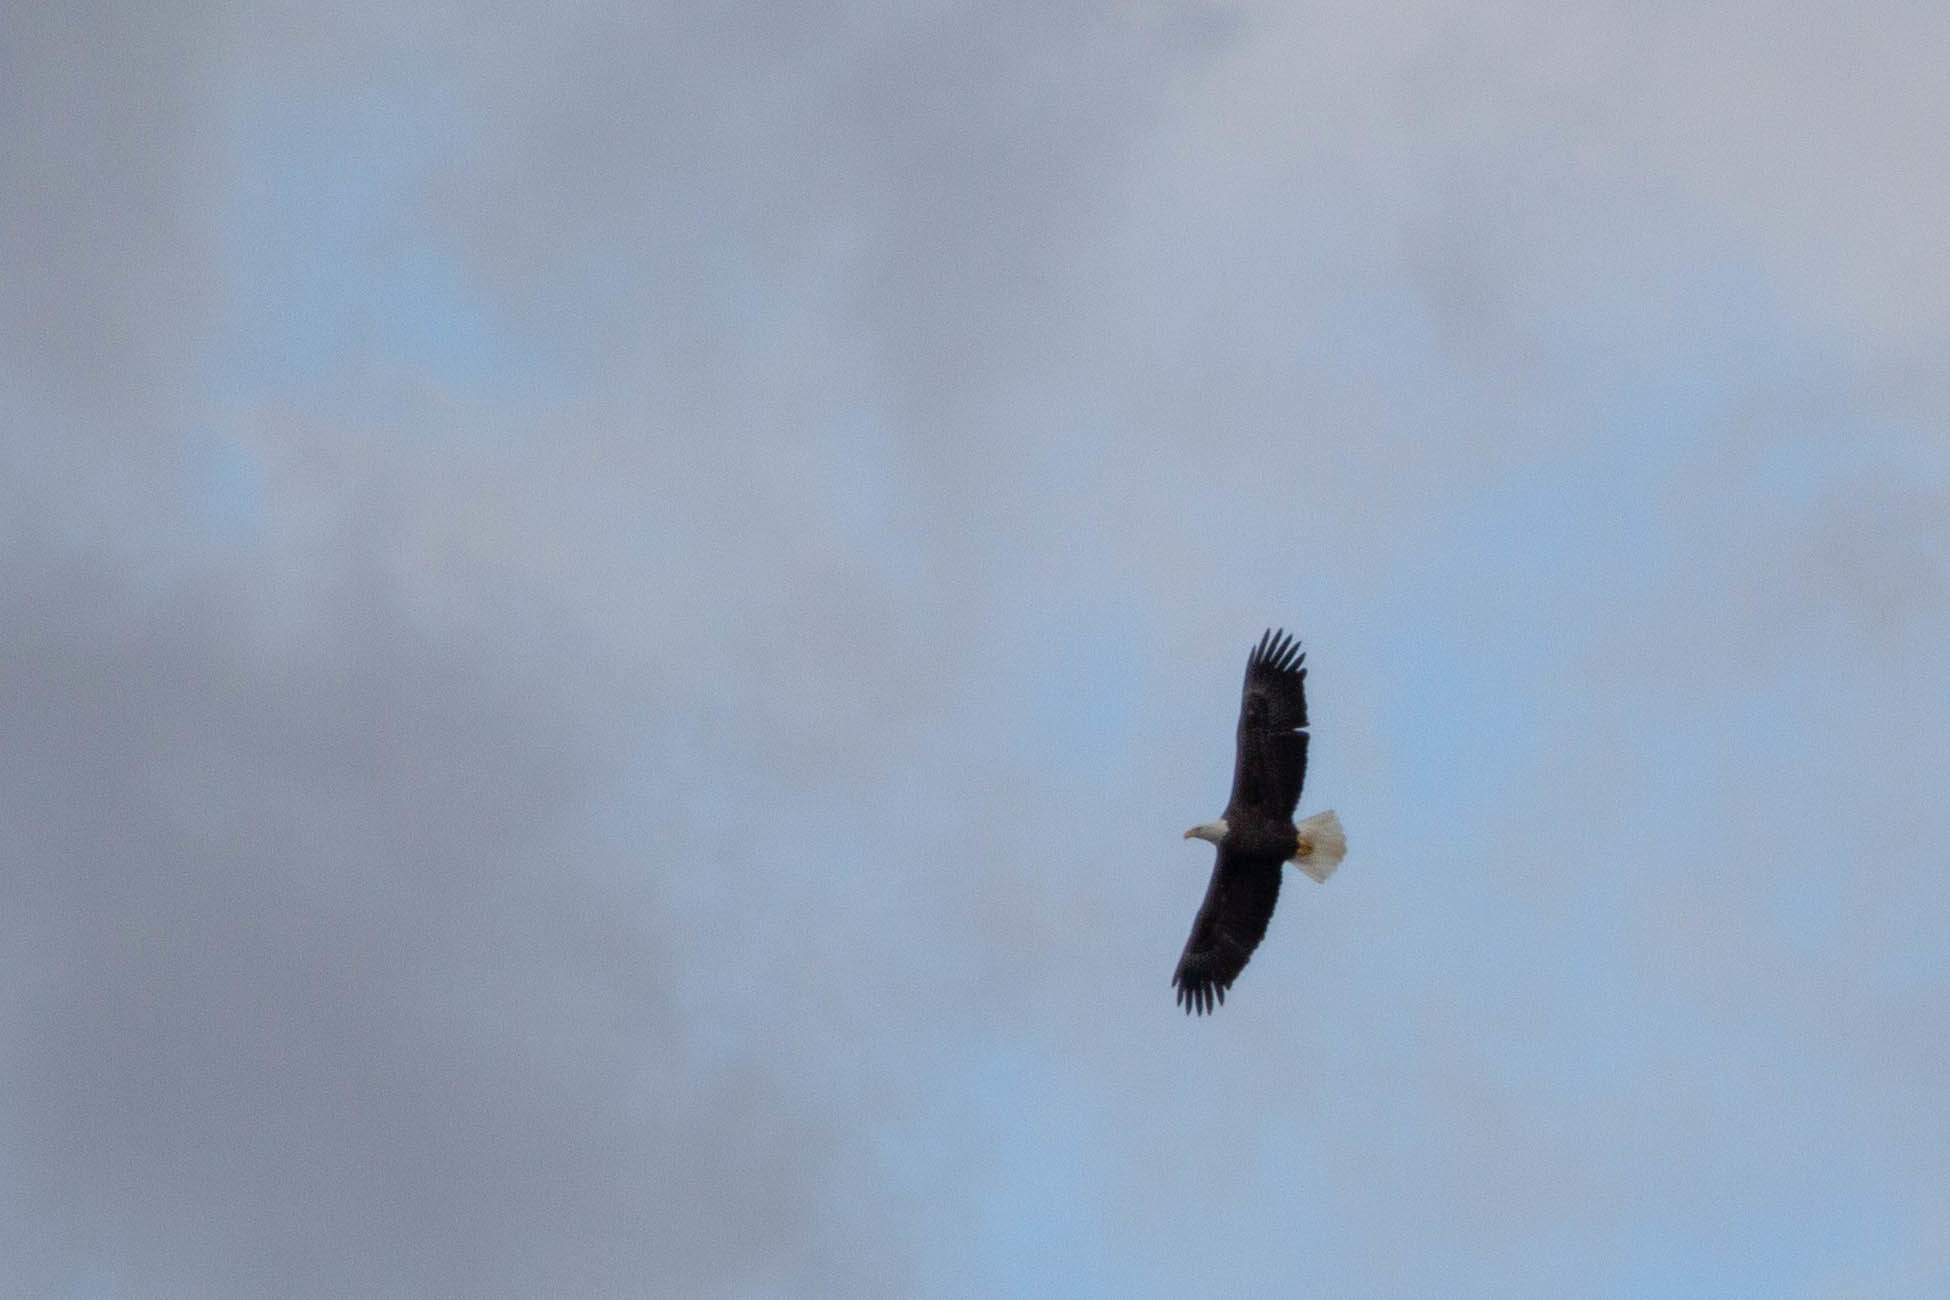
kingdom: Animalia
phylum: Chordata
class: Aves
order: Accipitriformes
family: Accipitridae
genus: Haliaeetus
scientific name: Haliaeetus leucocephalus
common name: Bald eagle
